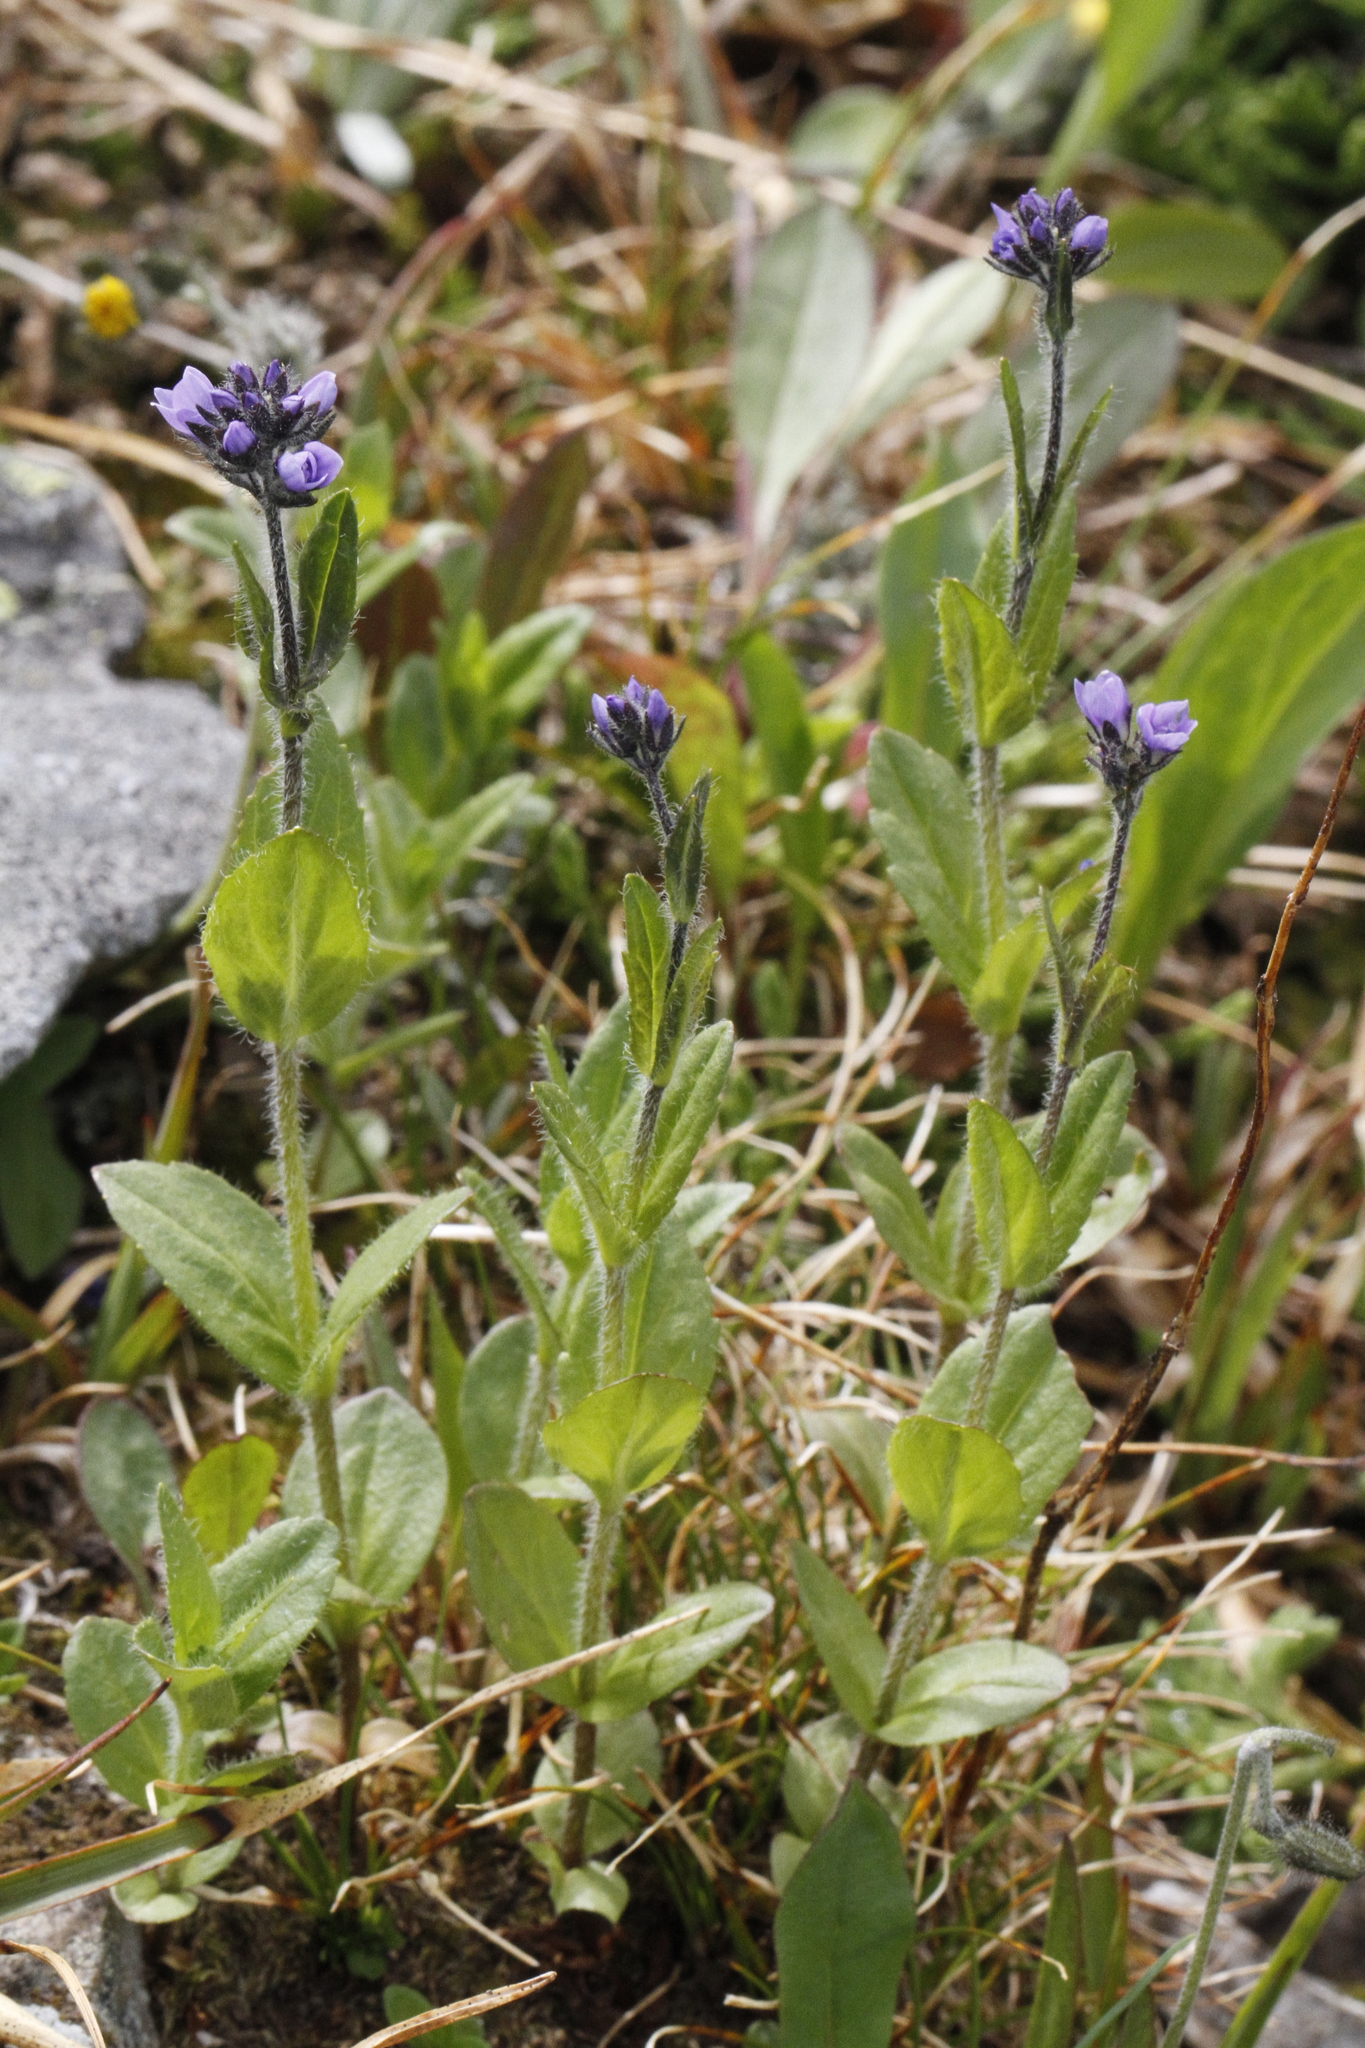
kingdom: Plantae
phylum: Tracheophyta
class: Magnoliopsida
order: Lamiales
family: Plantaginaceae
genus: Veronica
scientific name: Veronica wormskjoldii
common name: American alpine speedwell
